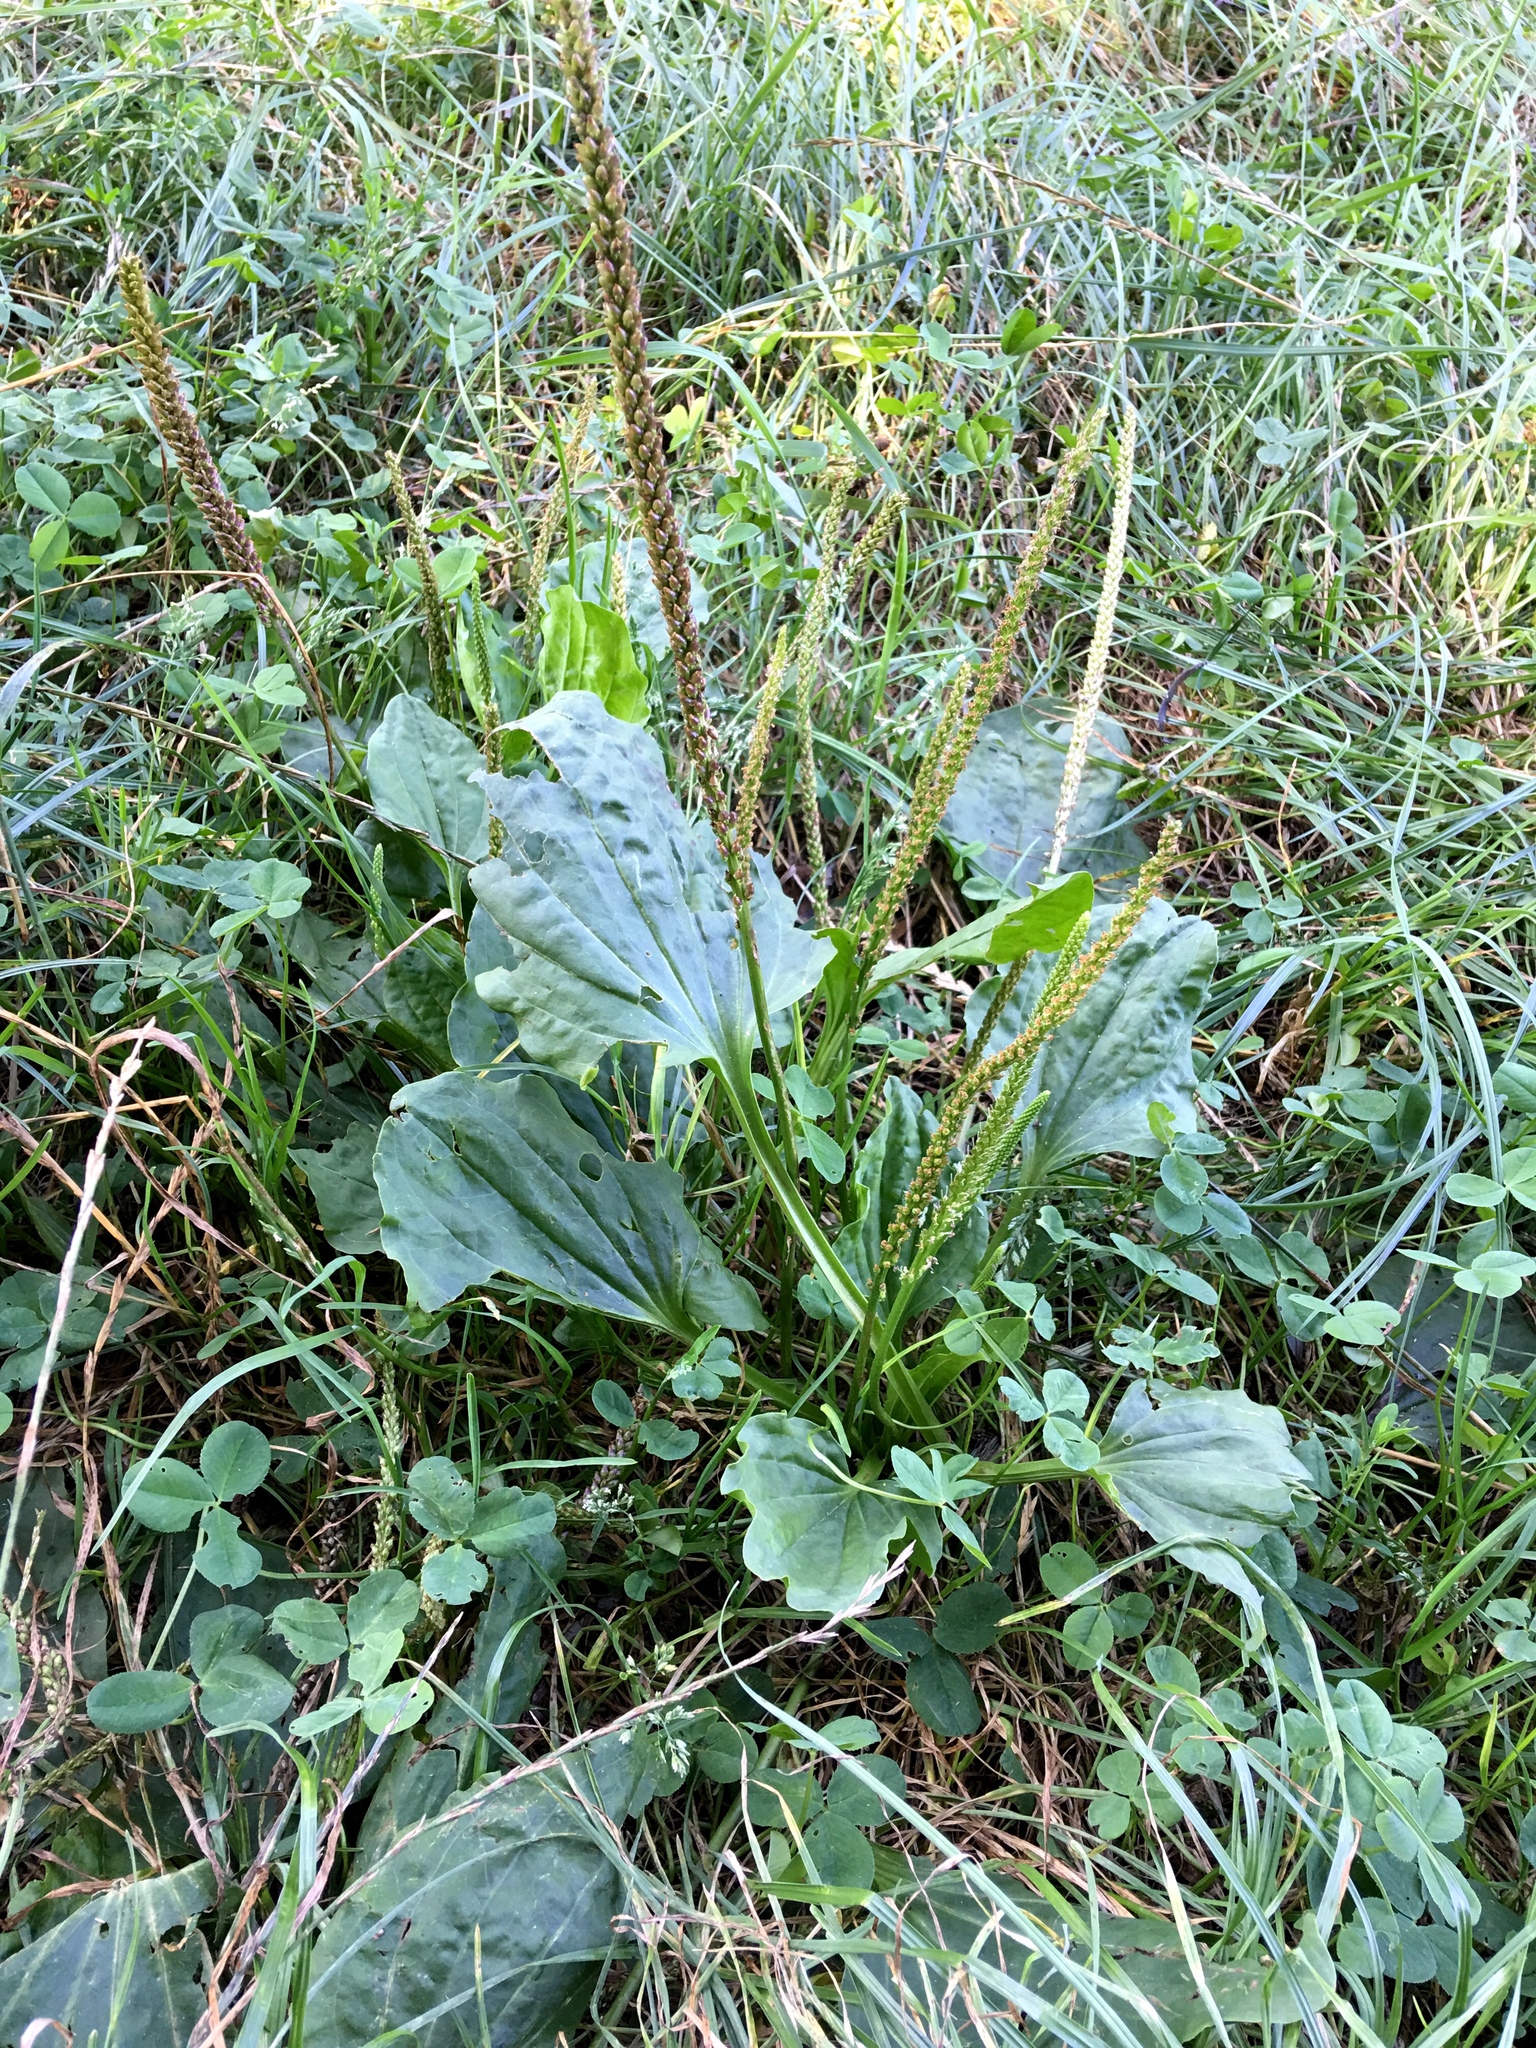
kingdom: Plantae
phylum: Tracheophyta
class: Magnoliopsida
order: Lamiales
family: Plantaginaceae
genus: Plantago
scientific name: Plantago major
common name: Common plantain
